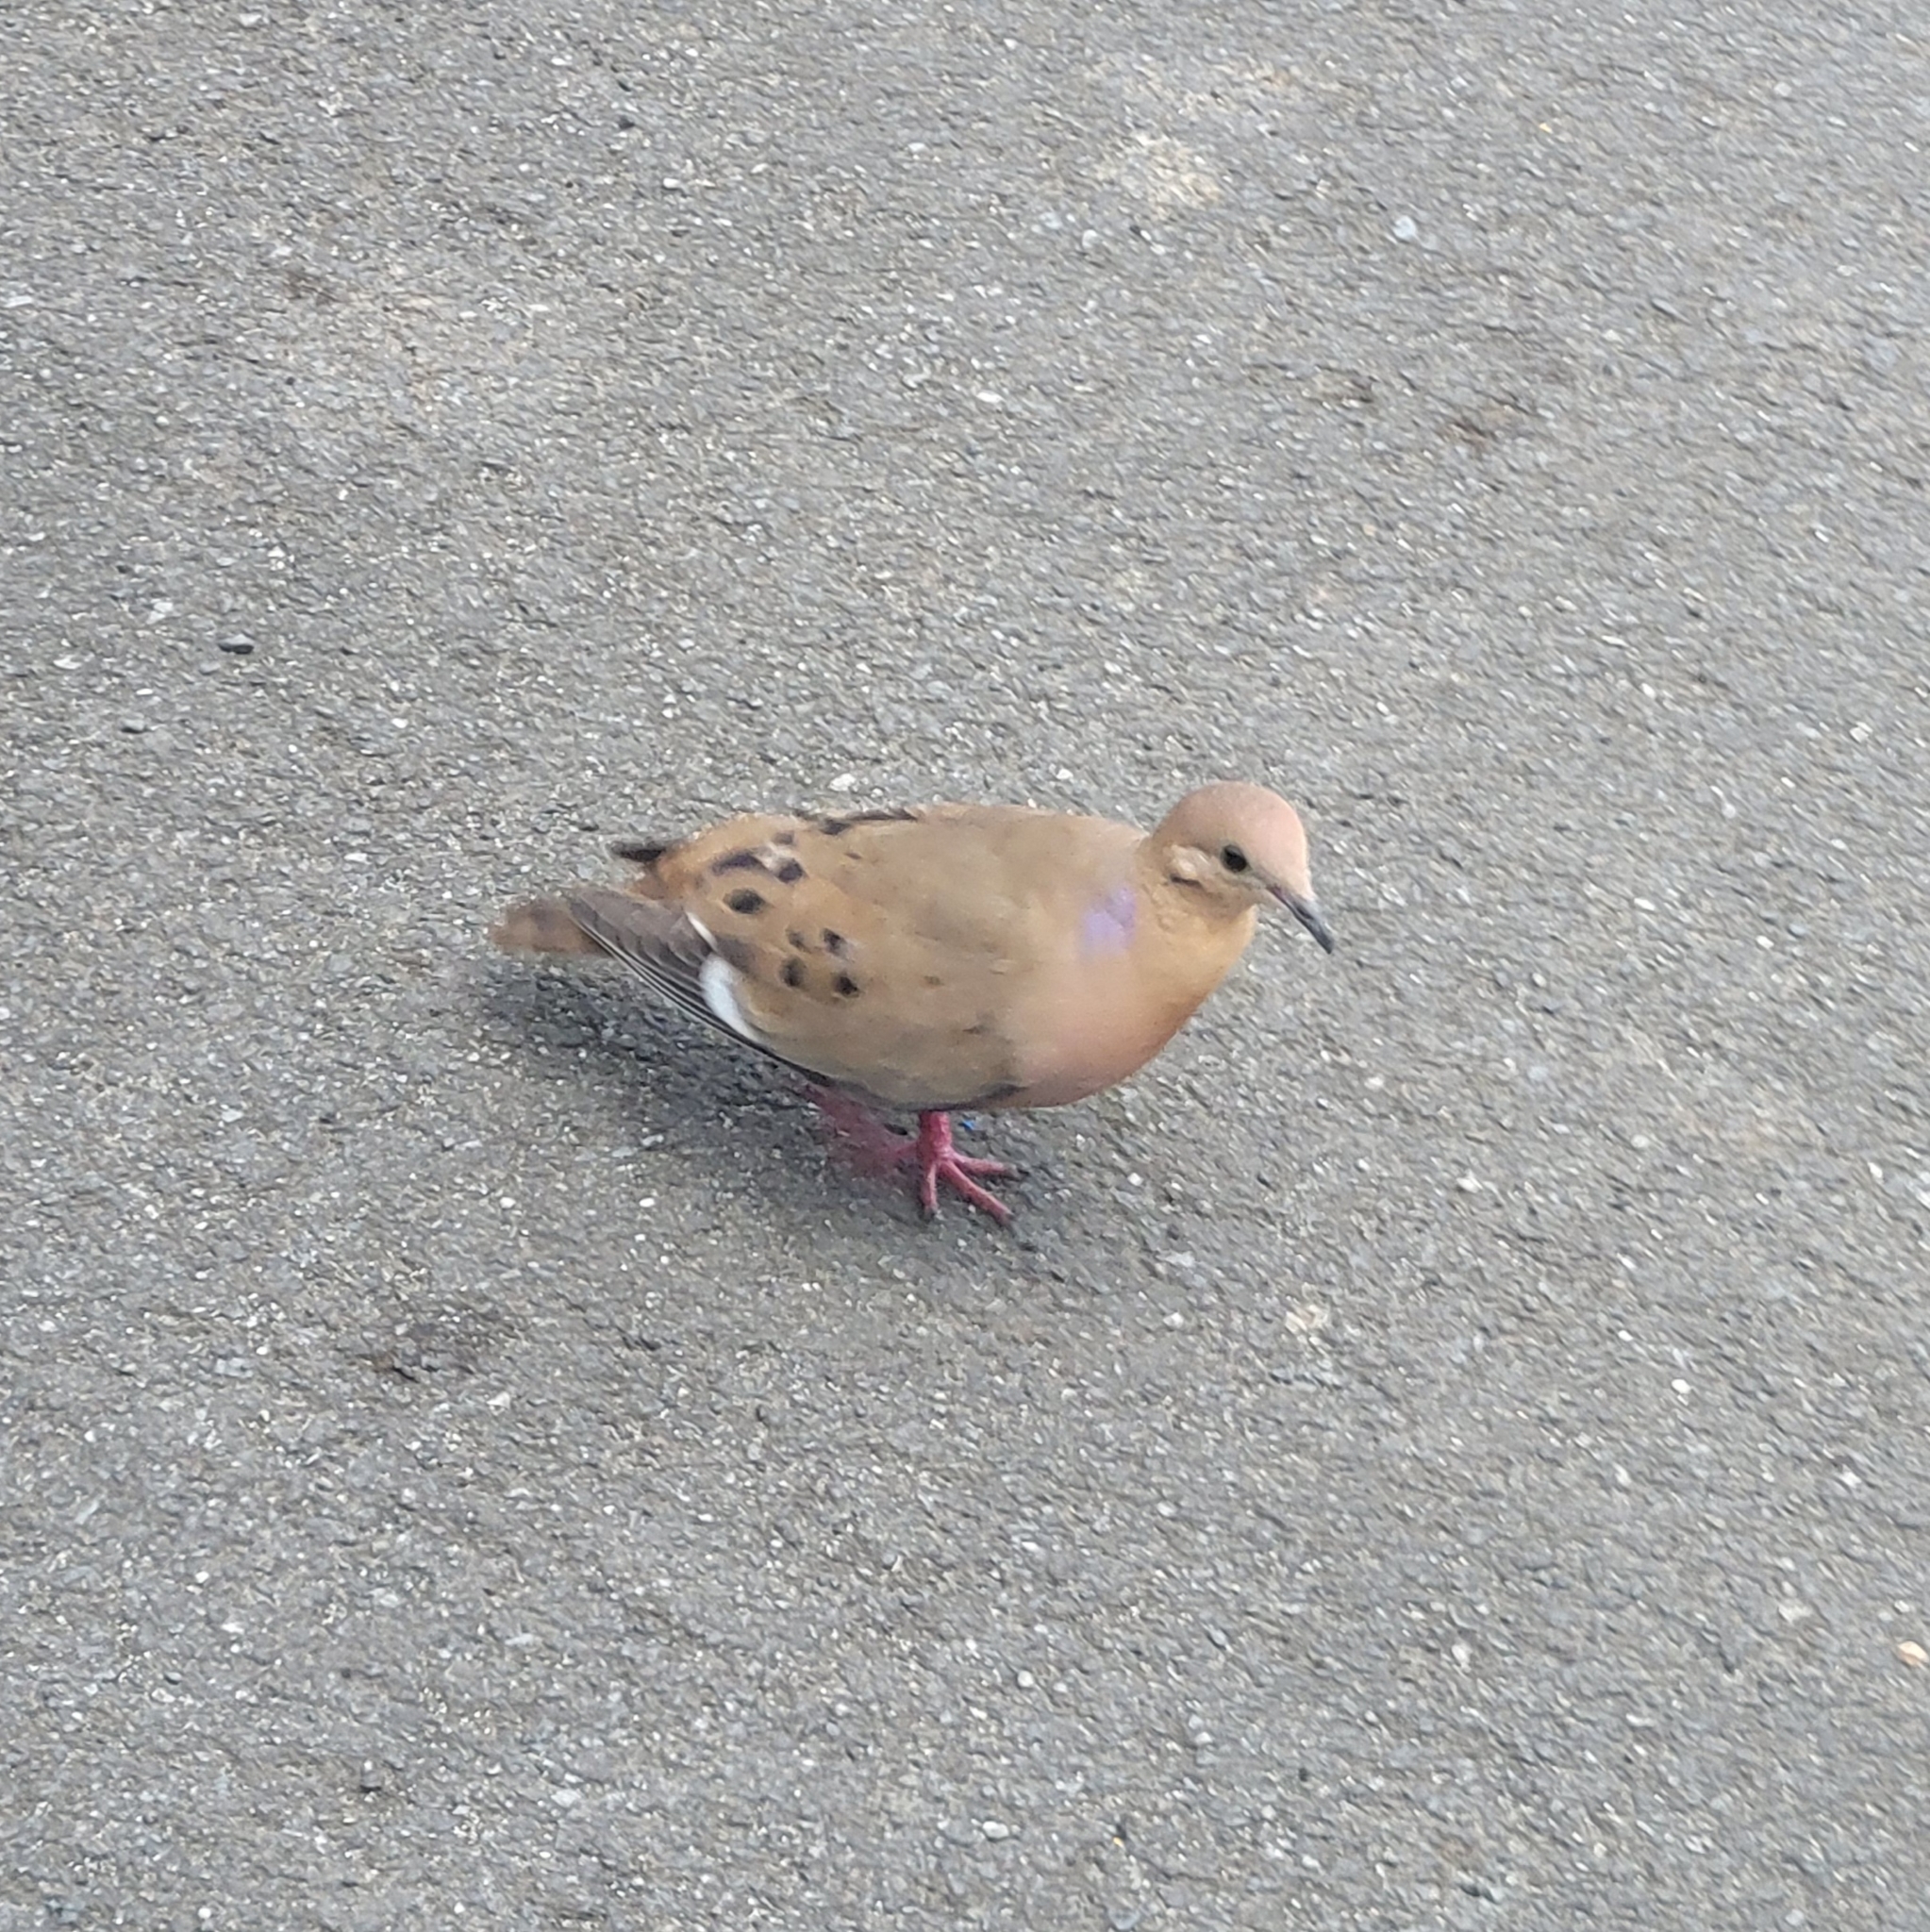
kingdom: Animalia
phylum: Chordata
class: Aves
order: Columbiformes
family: Columbidae
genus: Zenaida
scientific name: Zenaida aurita
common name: Zenaida dove
